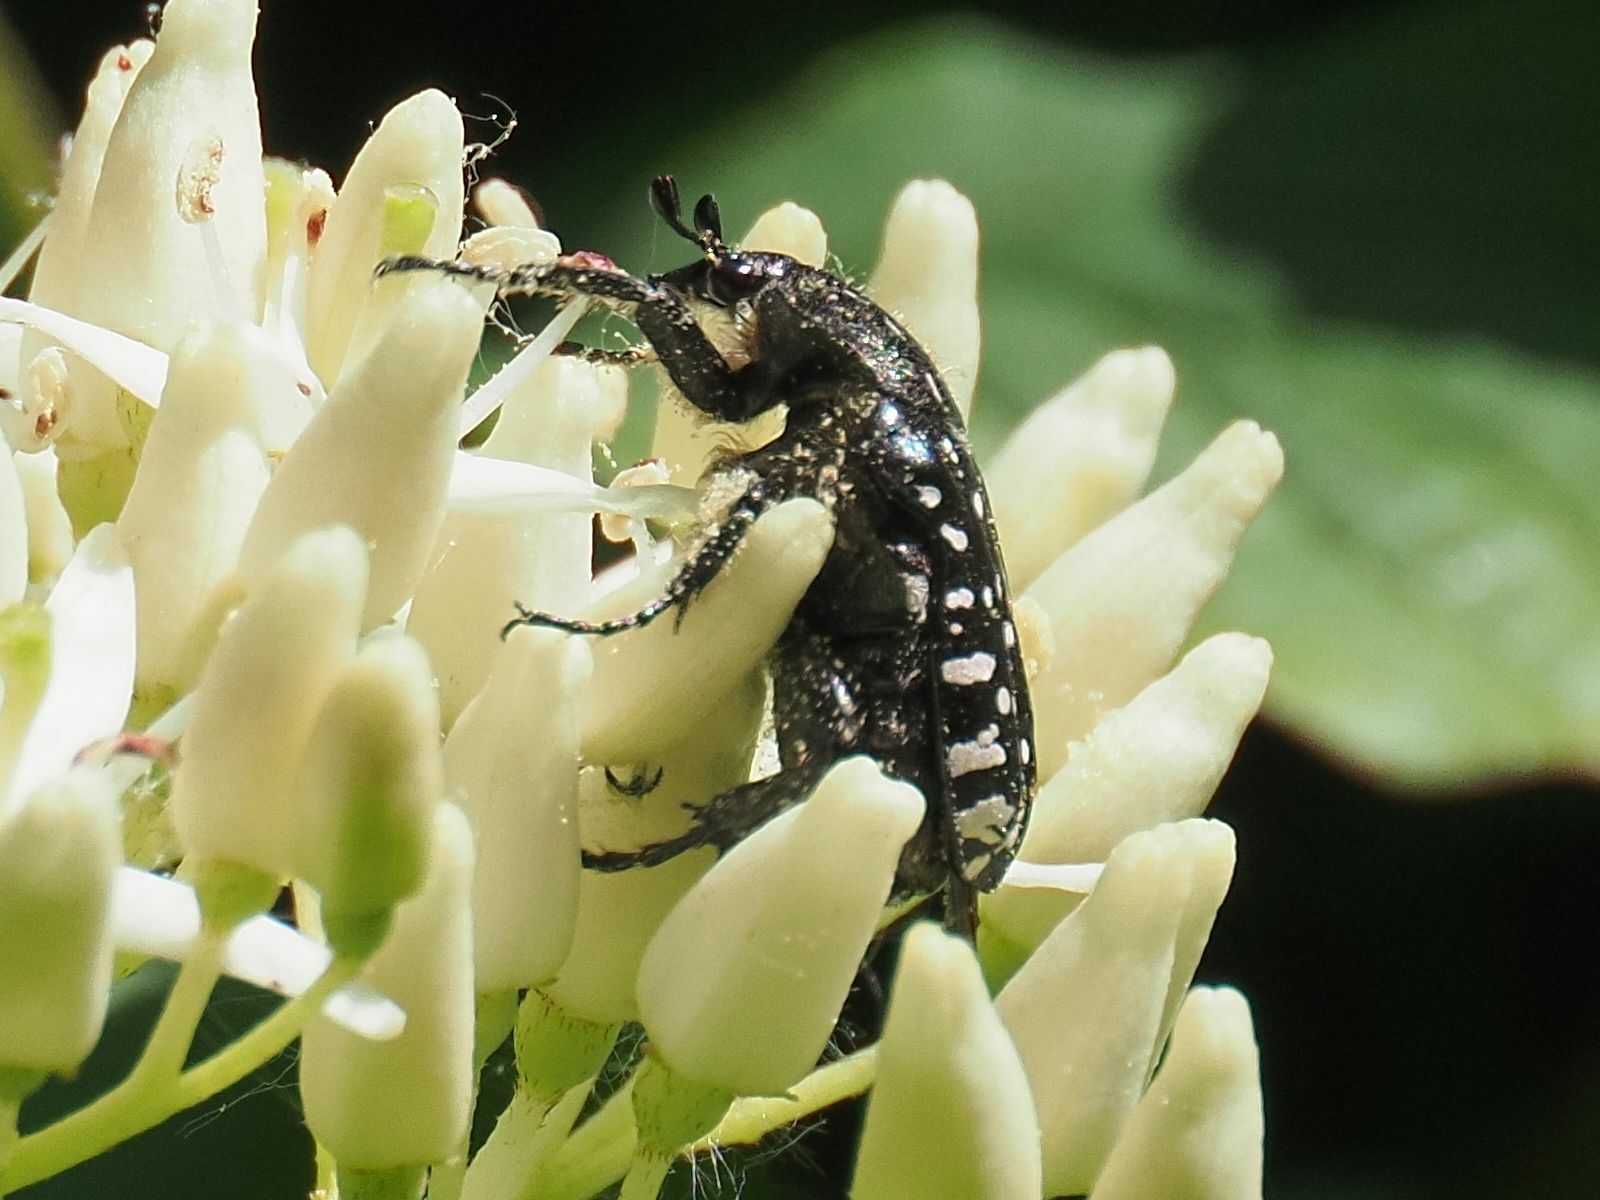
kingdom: Animalia
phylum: Arthropoda
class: Insecta
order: Coleoptera
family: Scarabaeidae
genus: Oxythyrea
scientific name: Oxythyrea funesta
